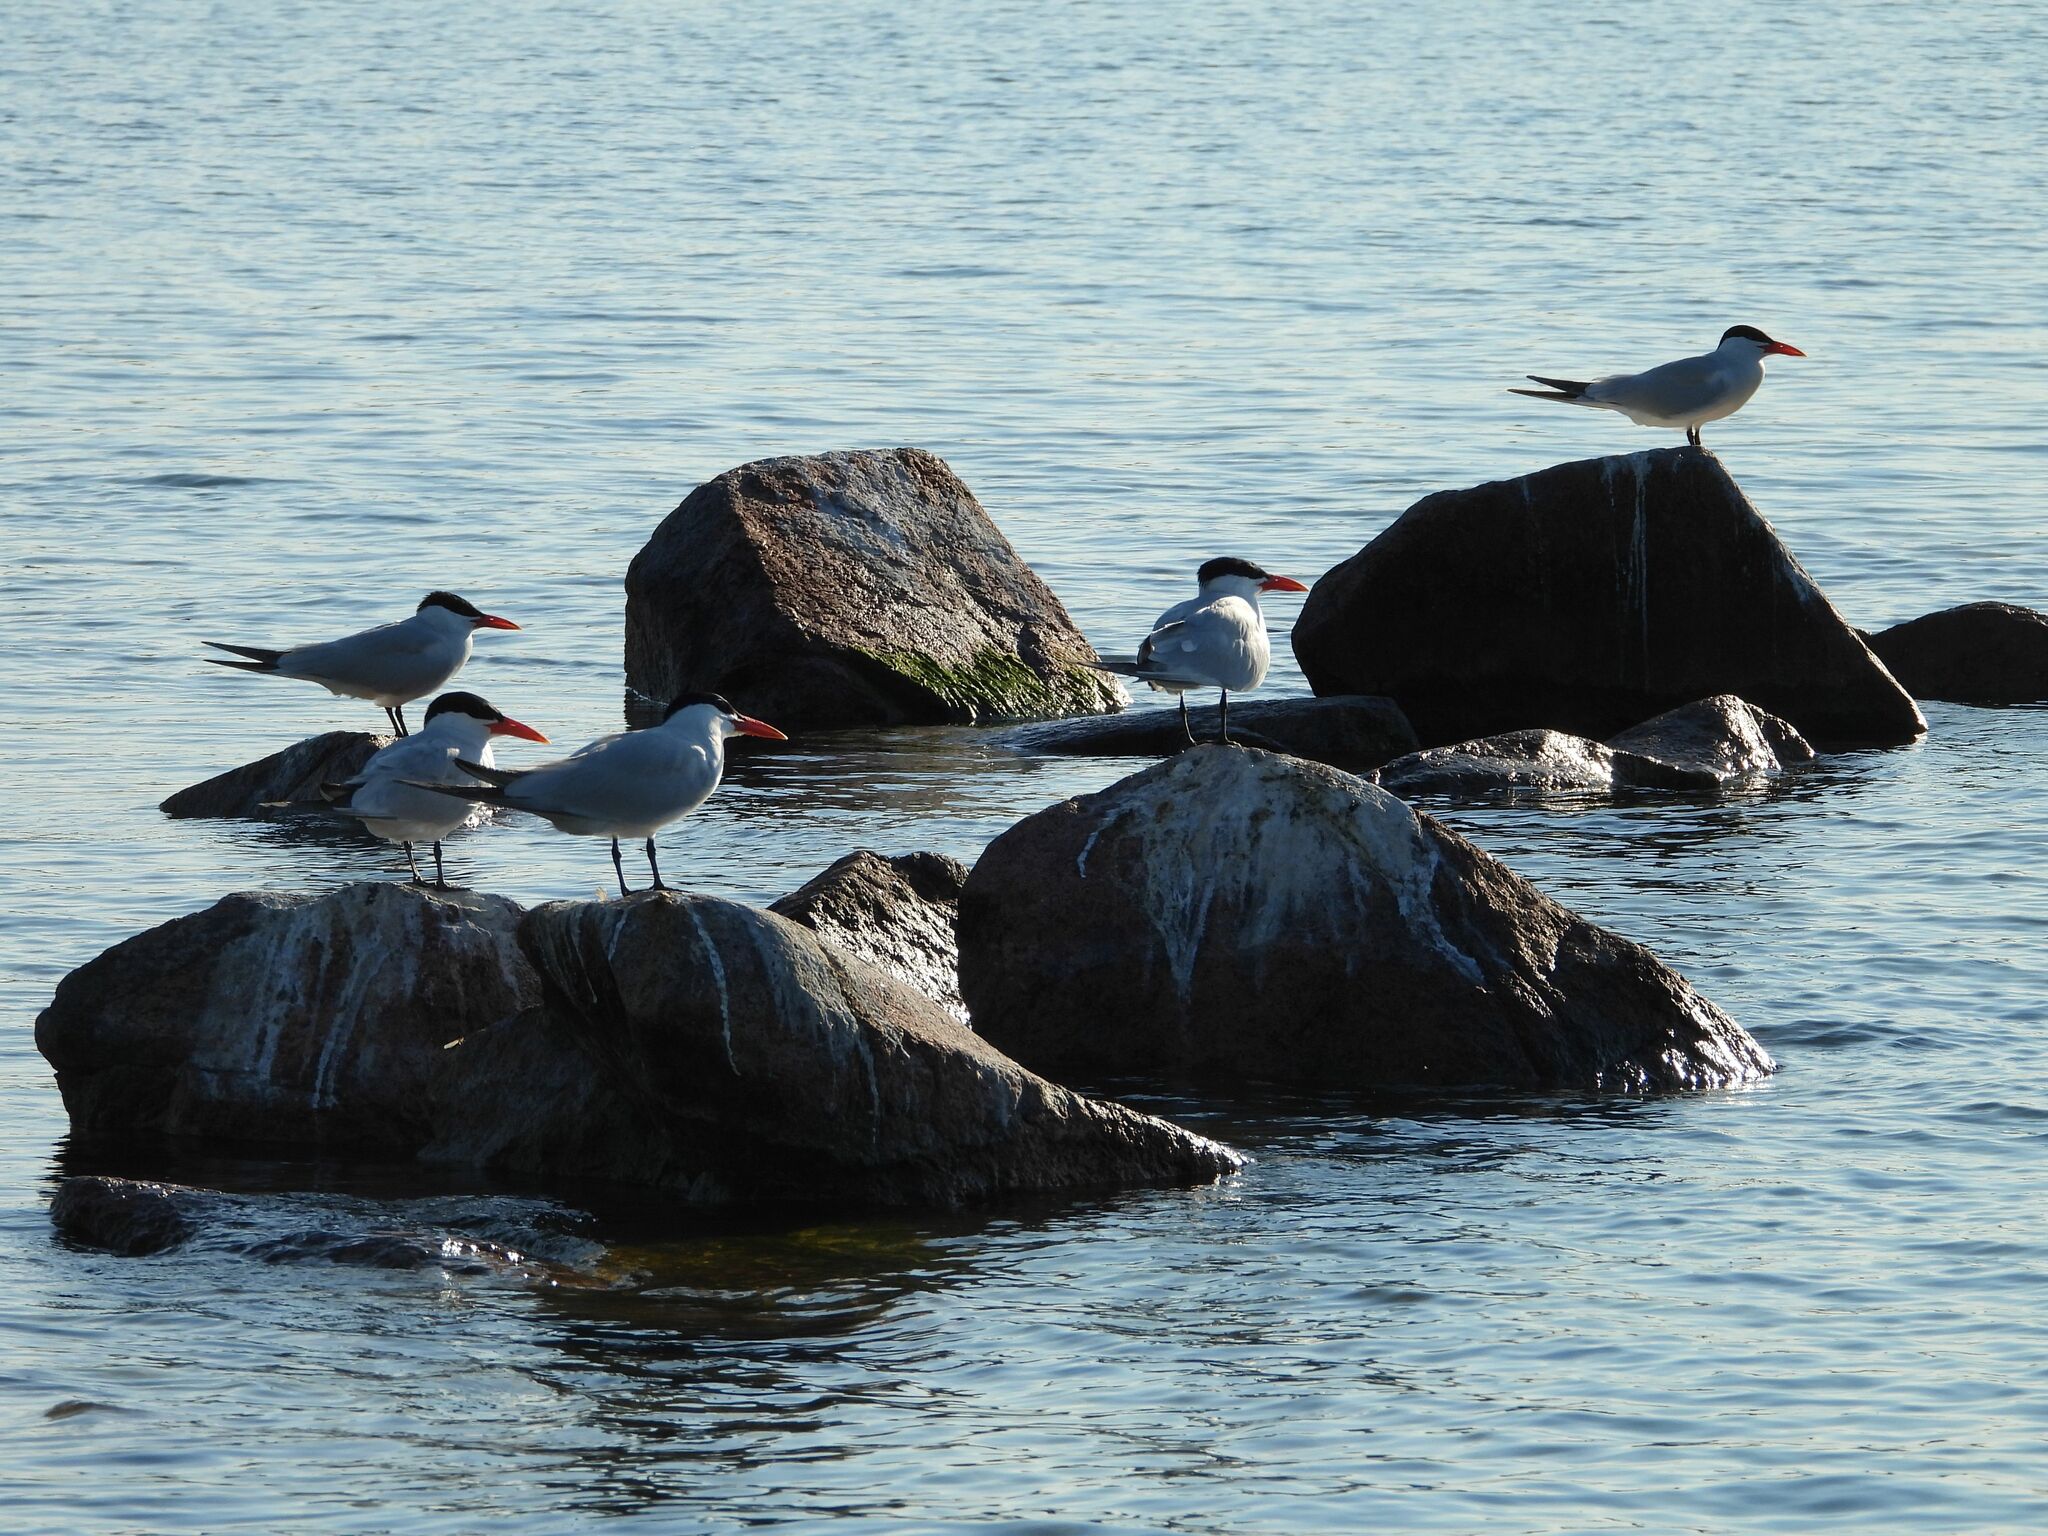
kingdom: Animalia
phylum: Chordata
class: Aves
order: Charadriiformes
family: Laridae
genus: Hydroprogne
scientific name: Hydroprogne caspia
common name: Caspian tern
